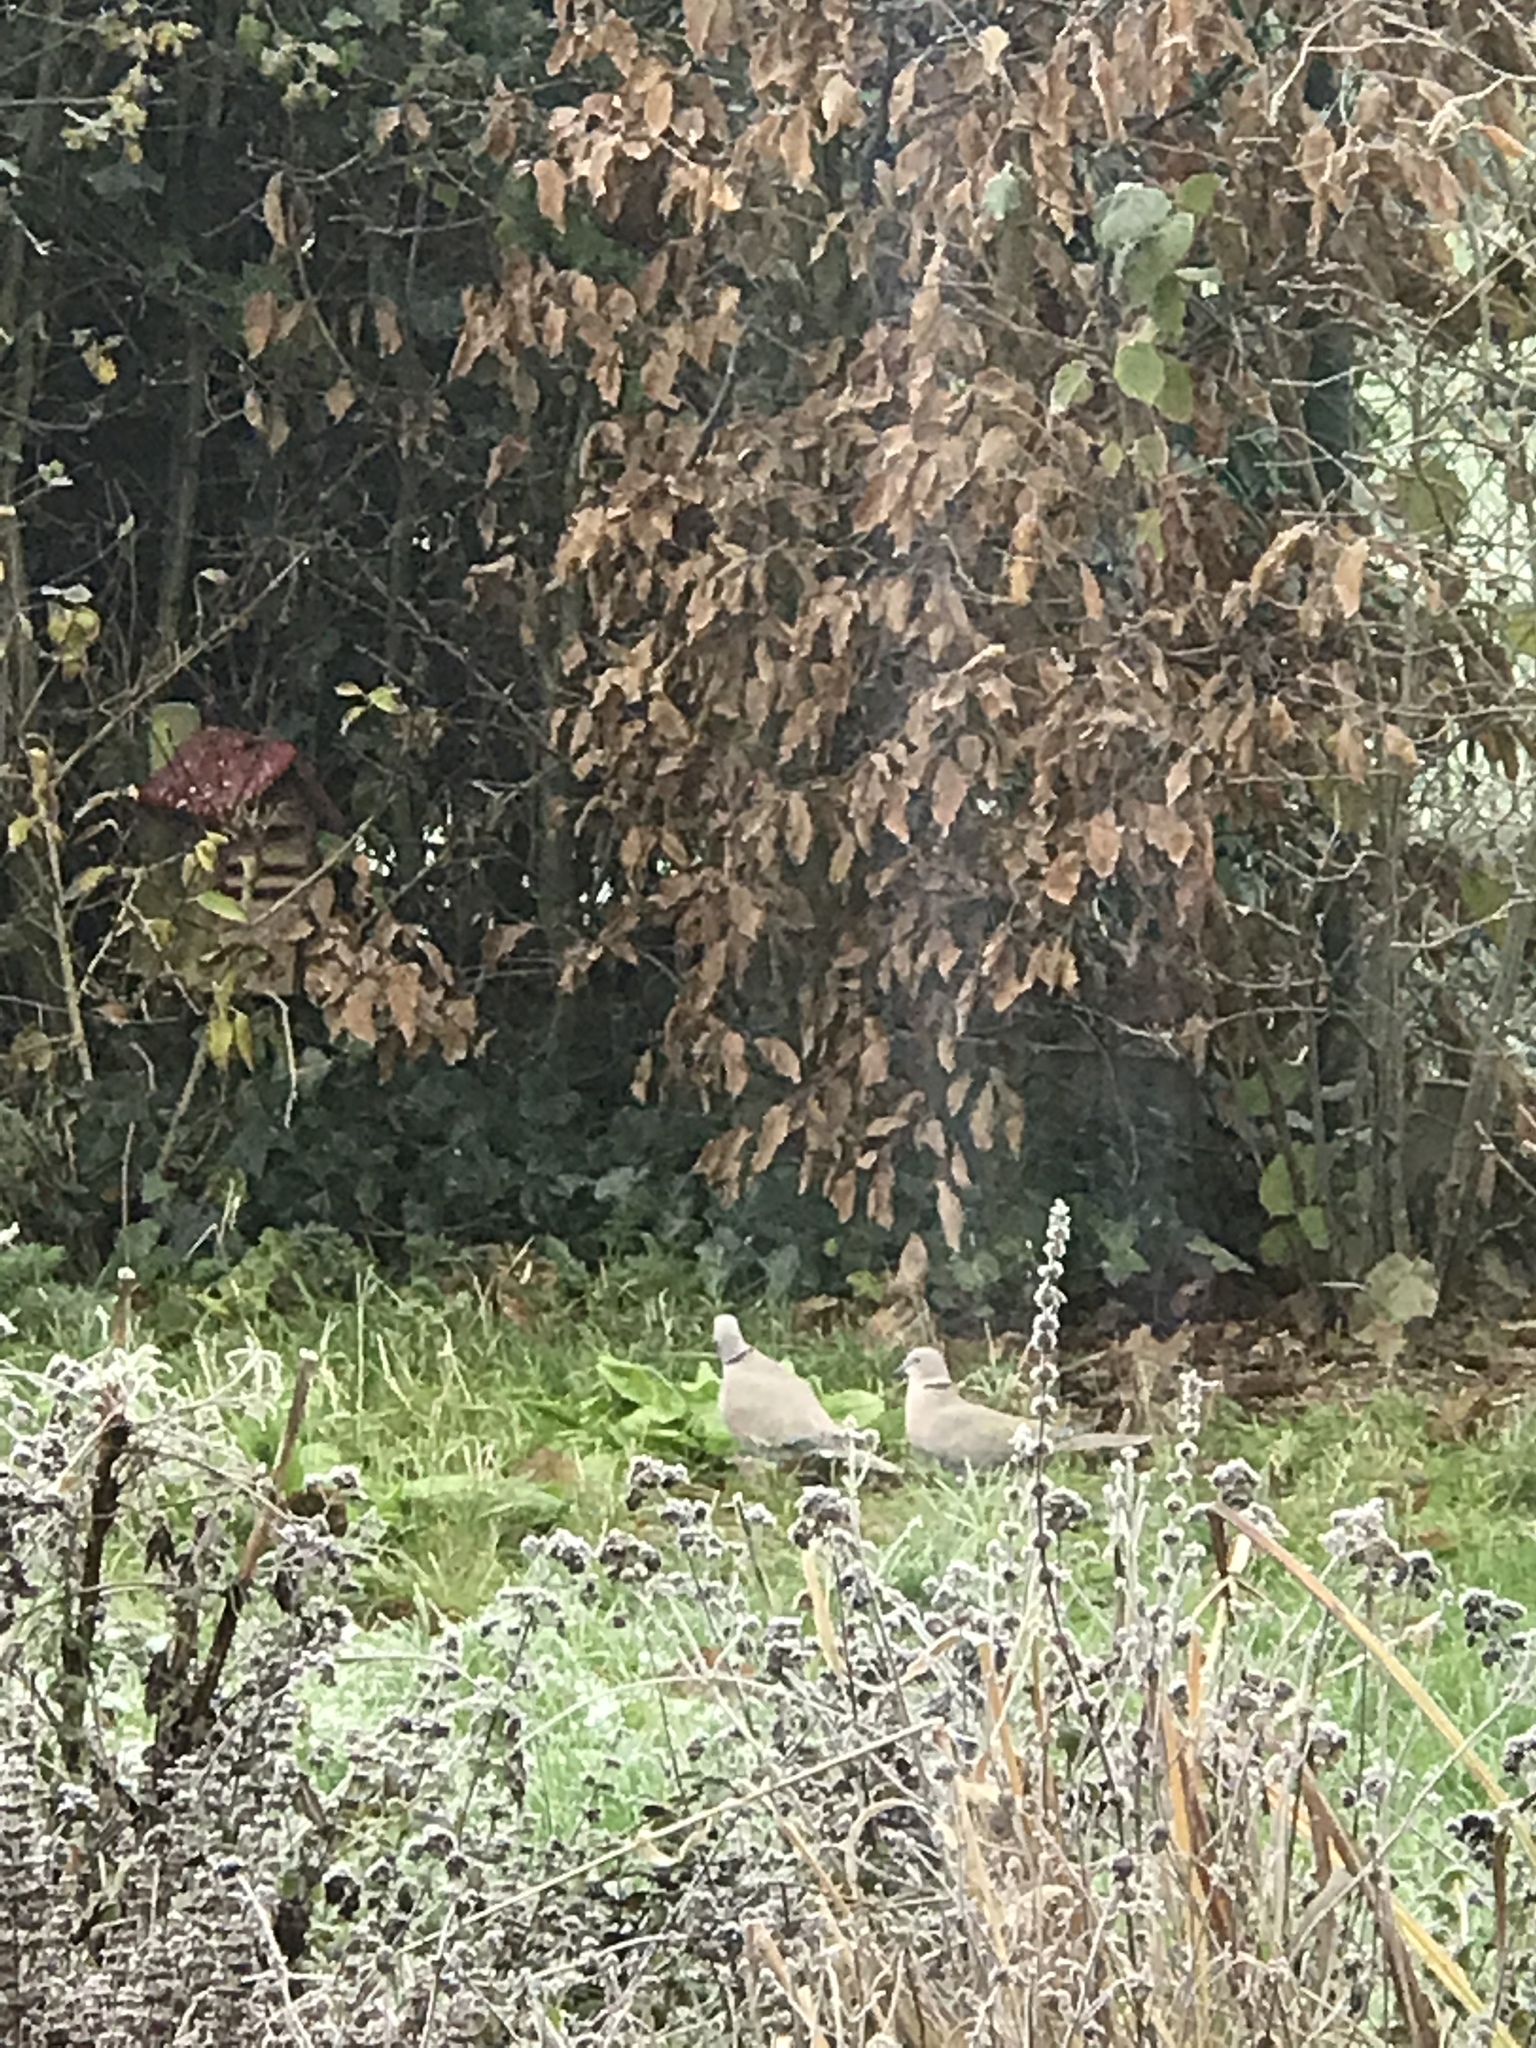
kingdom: Animalia
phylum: Chordata
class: Aves
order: Columbiformes
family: Columbidae
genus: Streptopelia
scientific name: Streptopelia decaocto
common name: Eurasian collared dove
